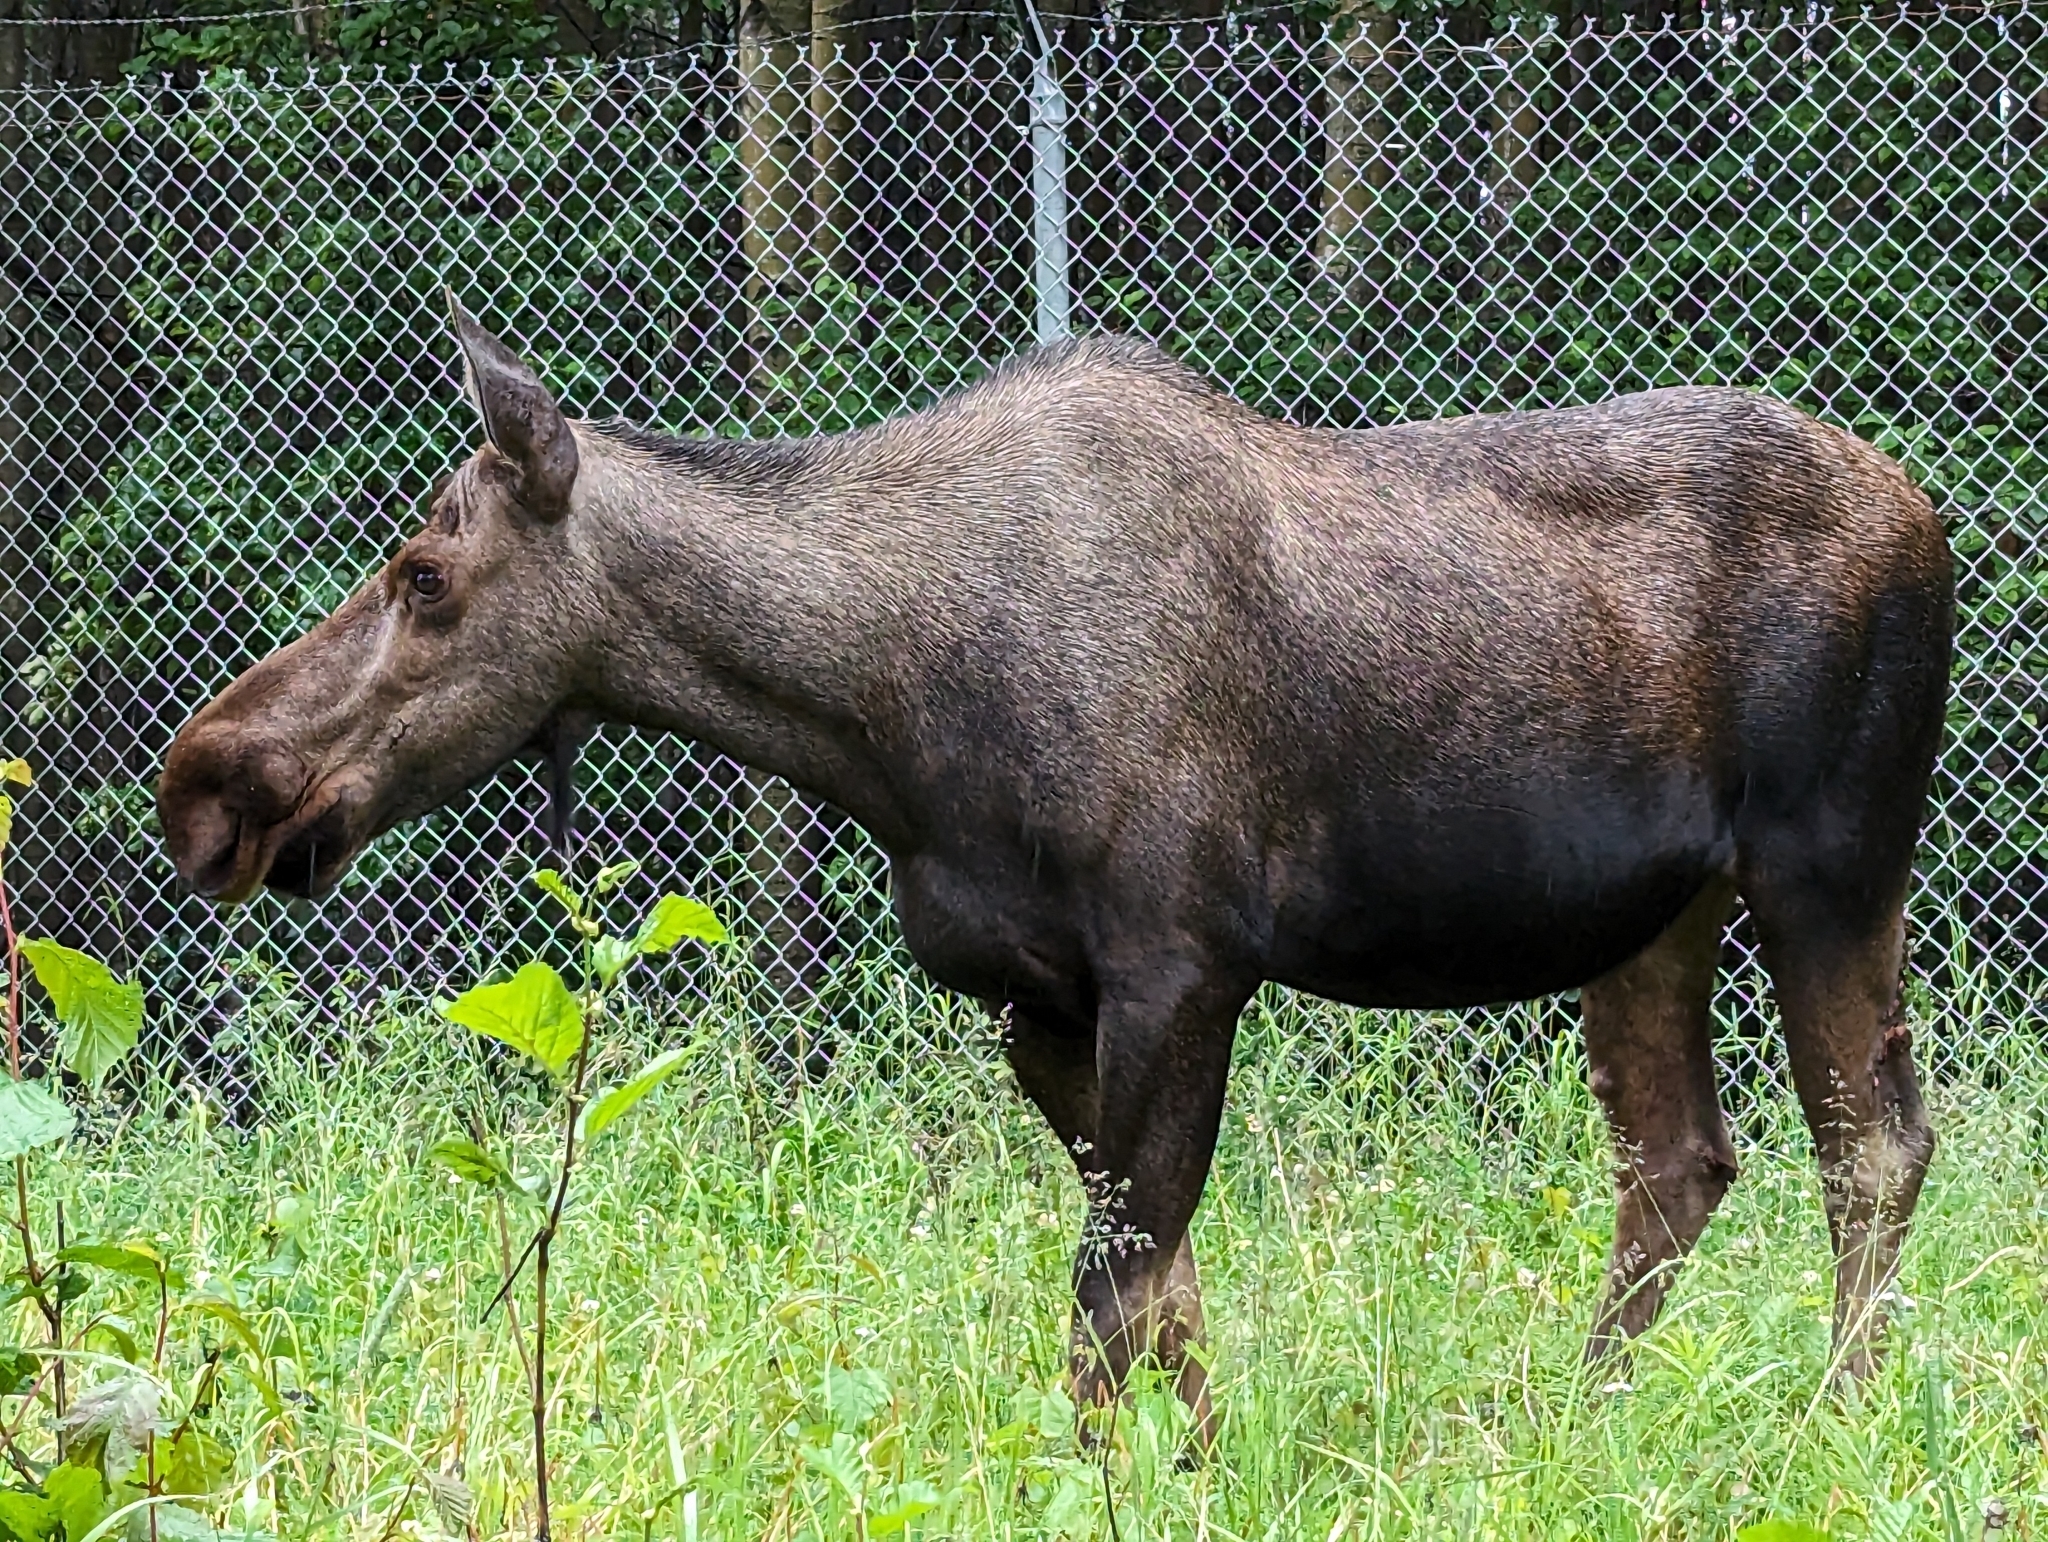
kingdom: Animalia
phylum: Chordata
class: Mammalia
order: Artiodactyla
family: Cervidae
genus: Alces
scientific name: Alces alces
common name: Moose
